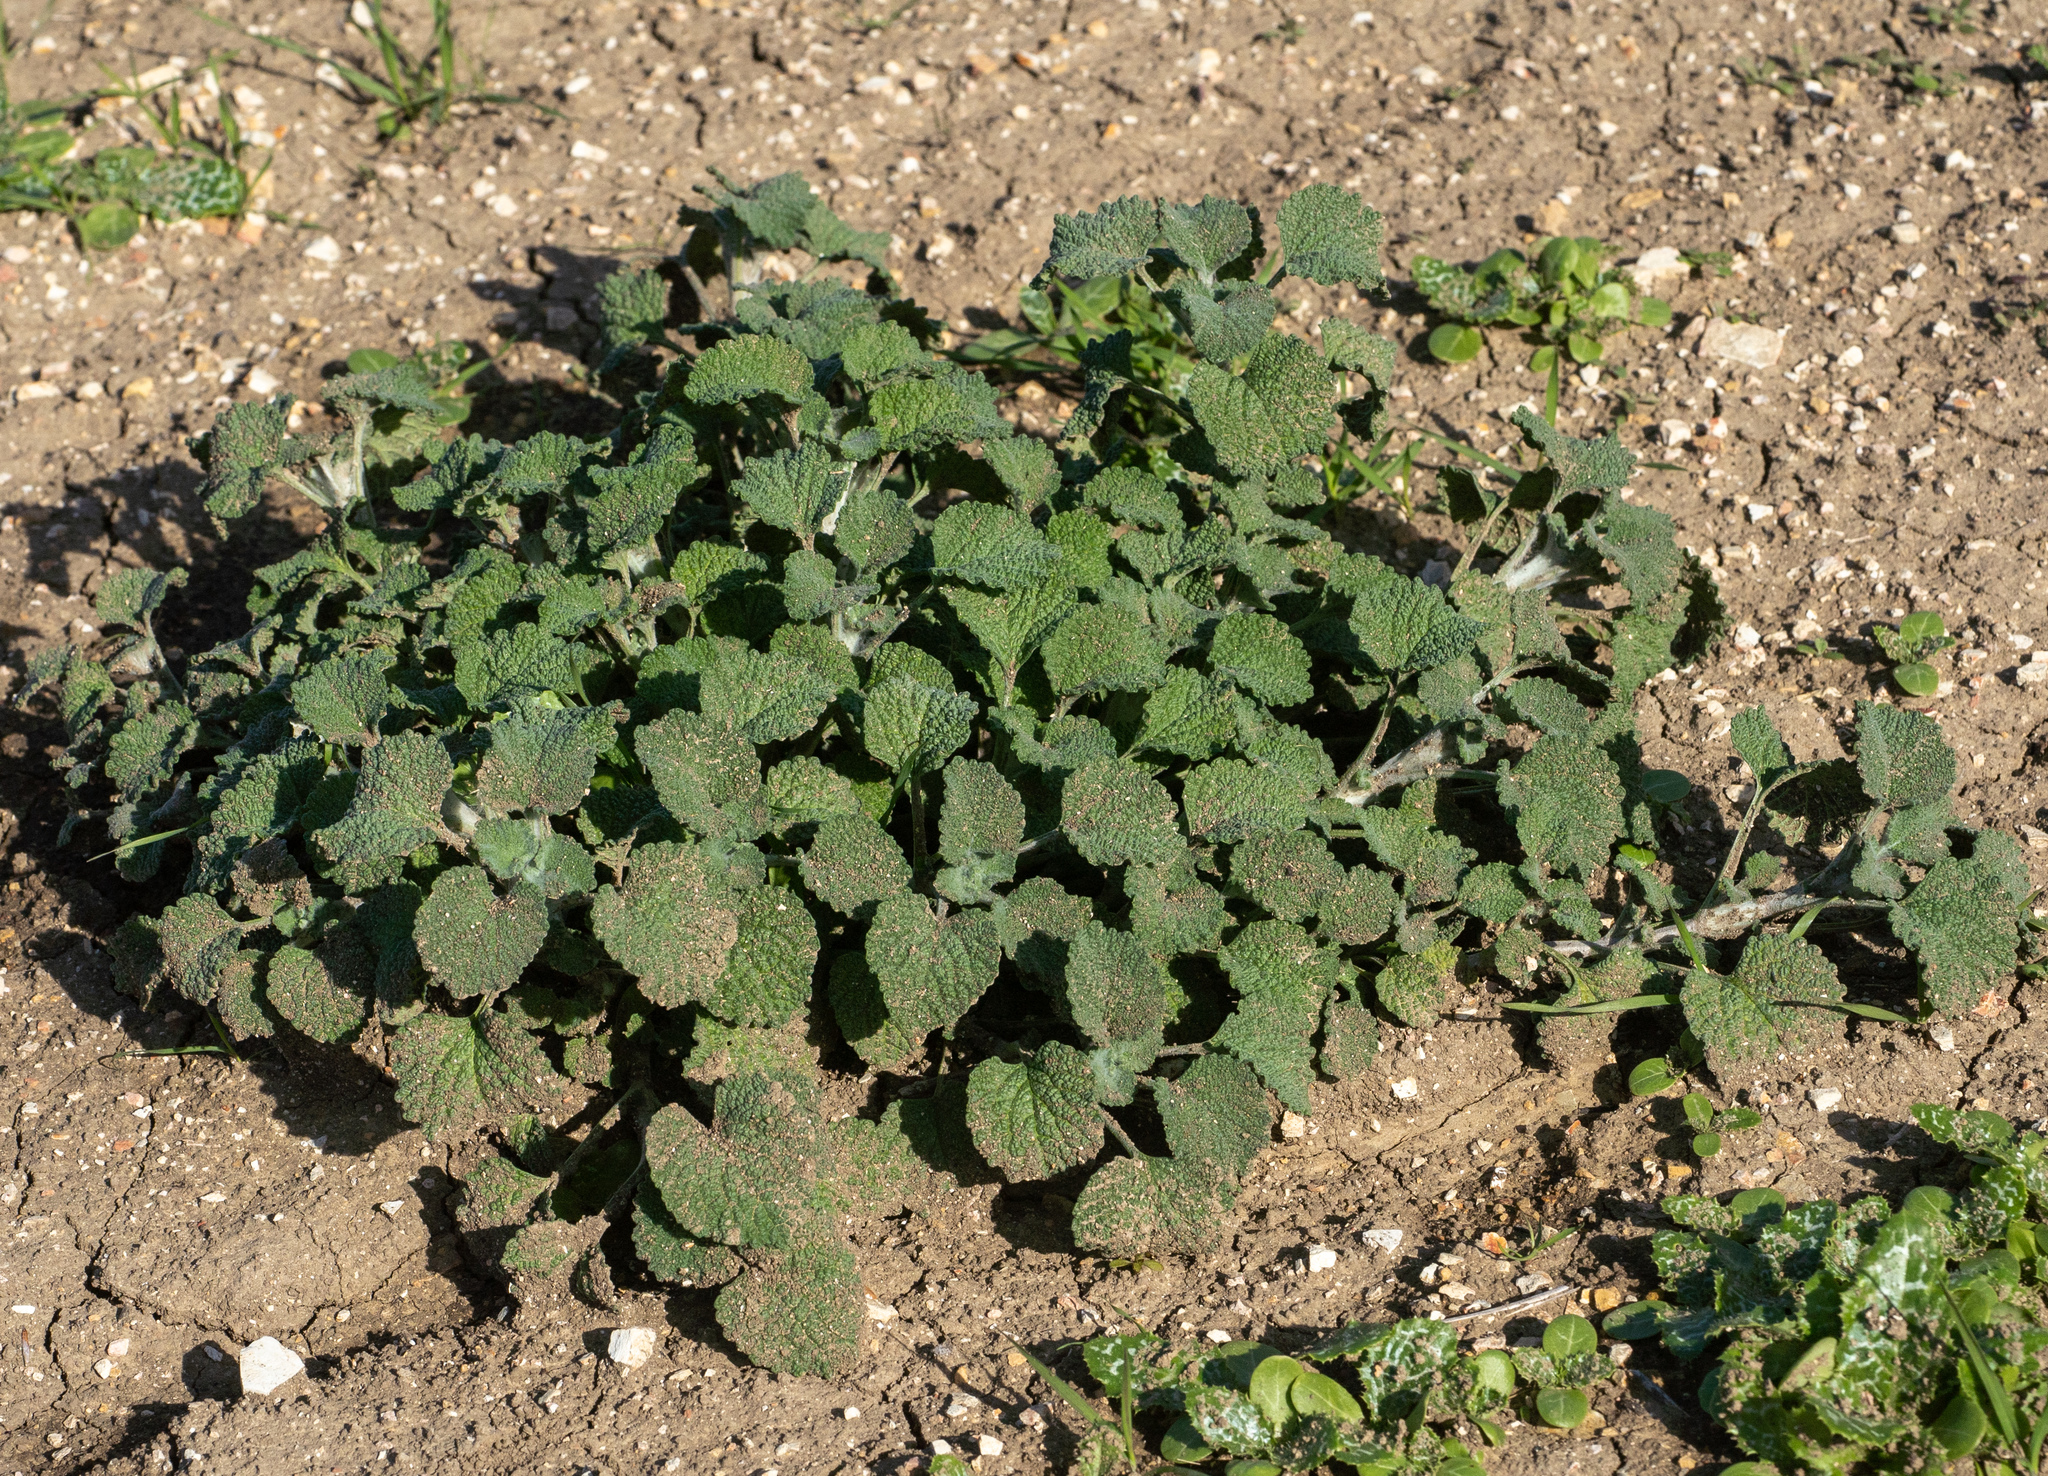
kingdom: Plantae
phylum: Tracheophyta
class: Magnoliopsida
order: Lamiales
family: Lamiaceae
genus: Marrubium
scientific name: Marrubium vulgare
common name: Horehound
